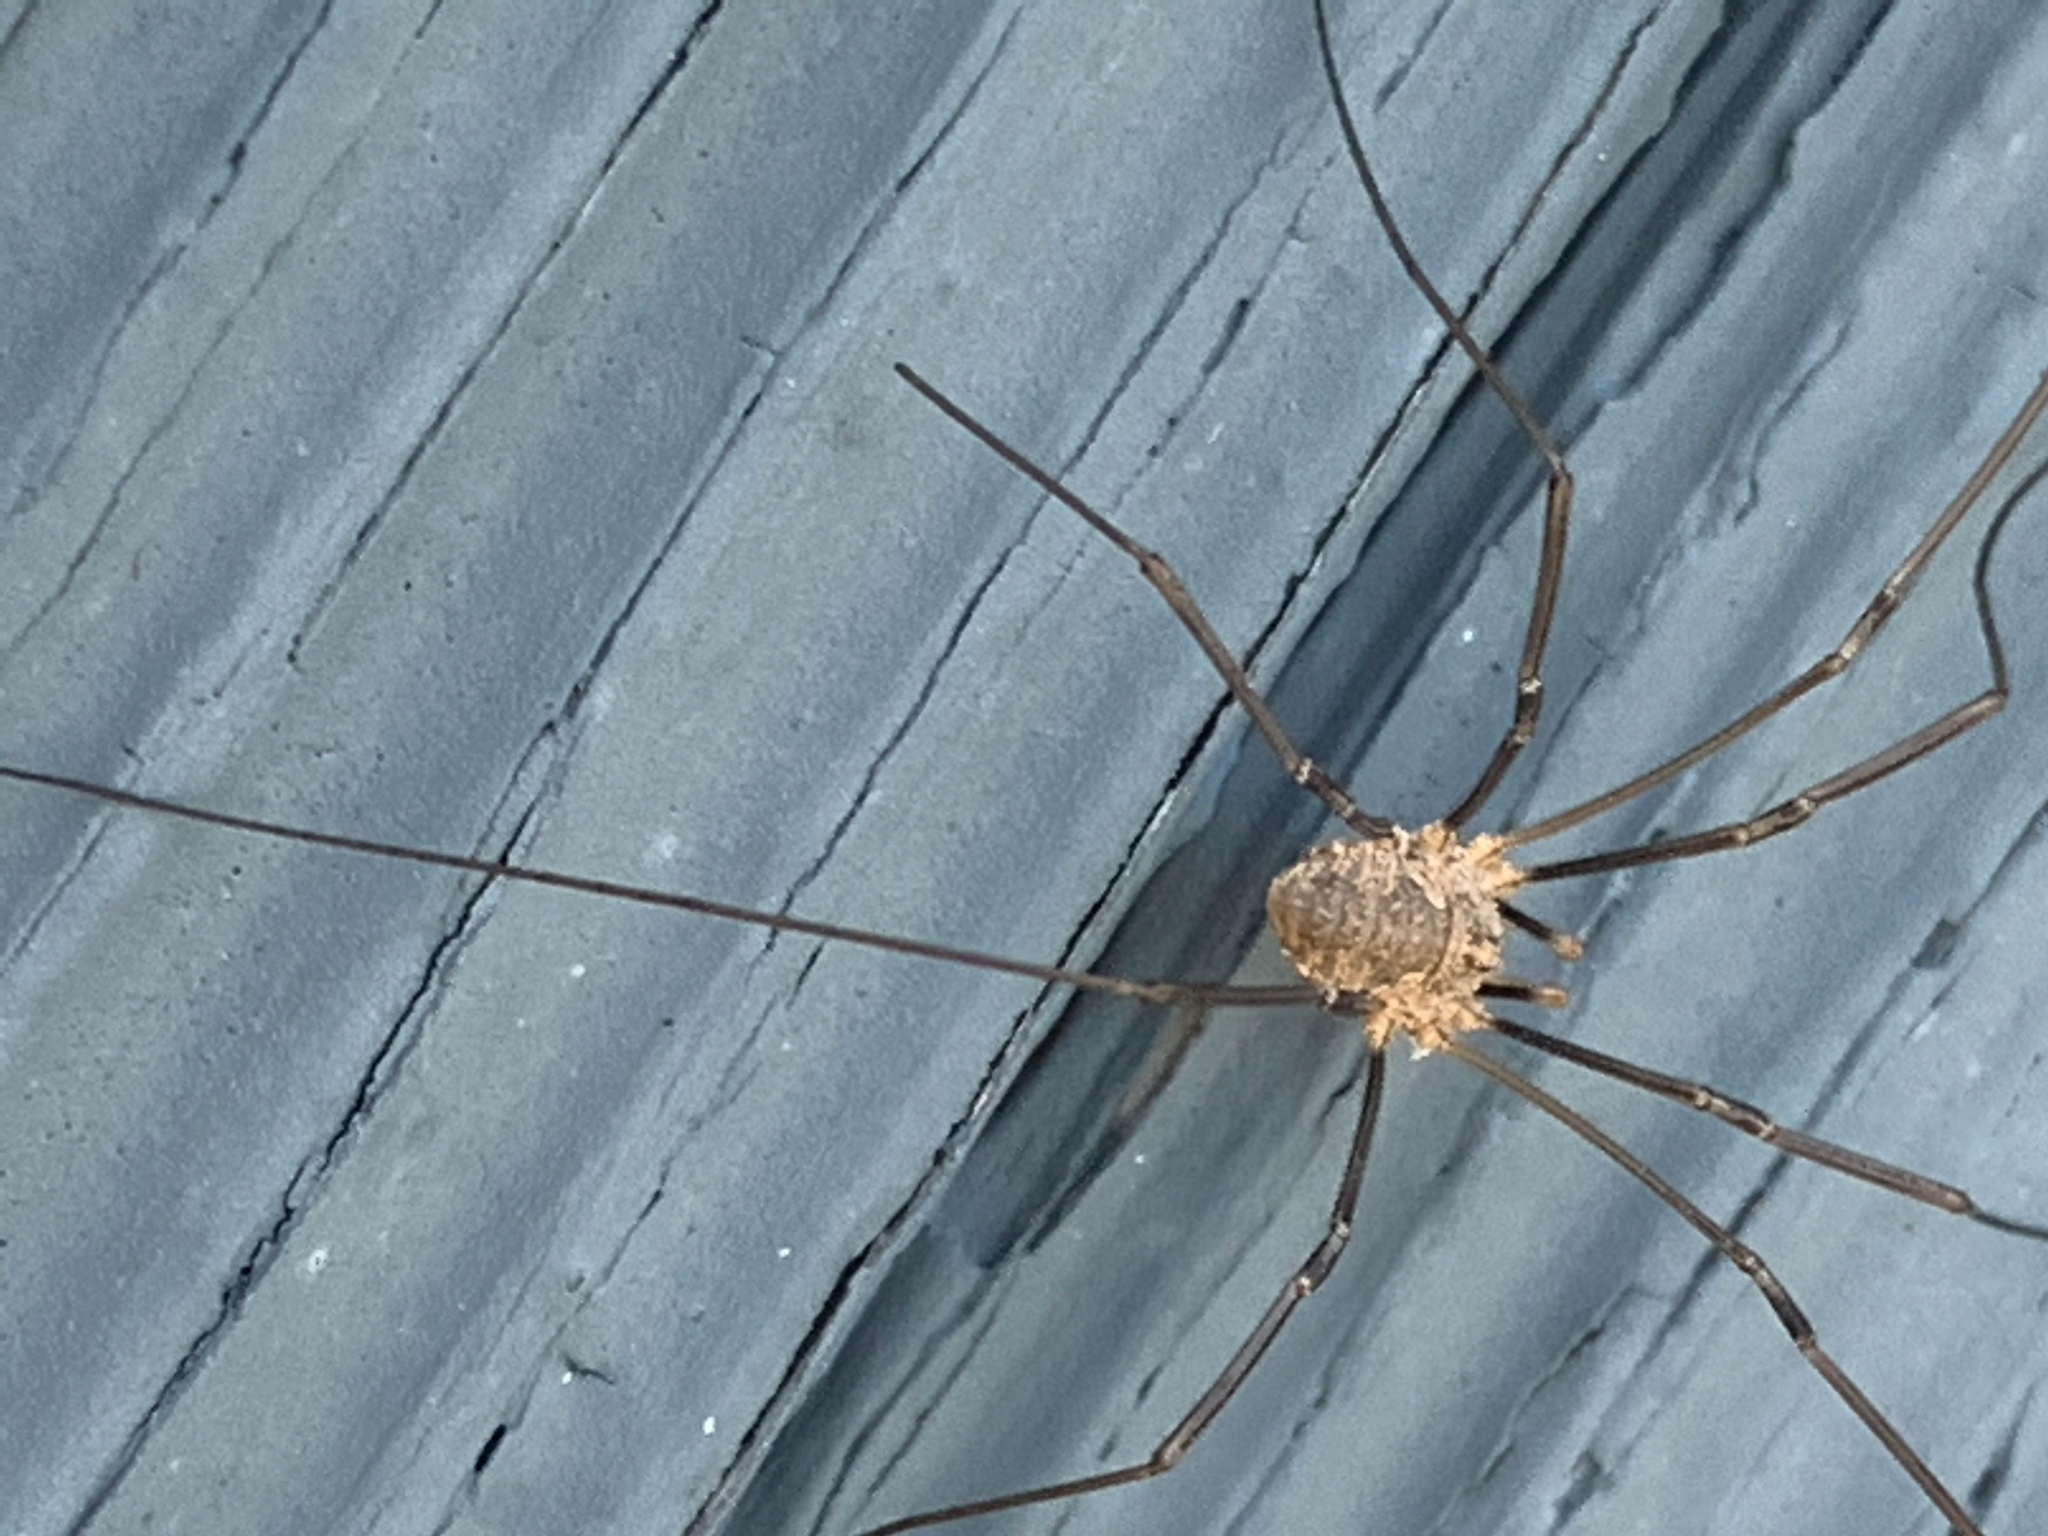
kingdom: Animalia
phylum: Arthropoda
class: Arachnida
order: Opiliones
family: Phalangiidae
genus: Phalangium
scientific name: Phalangium opilio
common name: Daddy longleg
